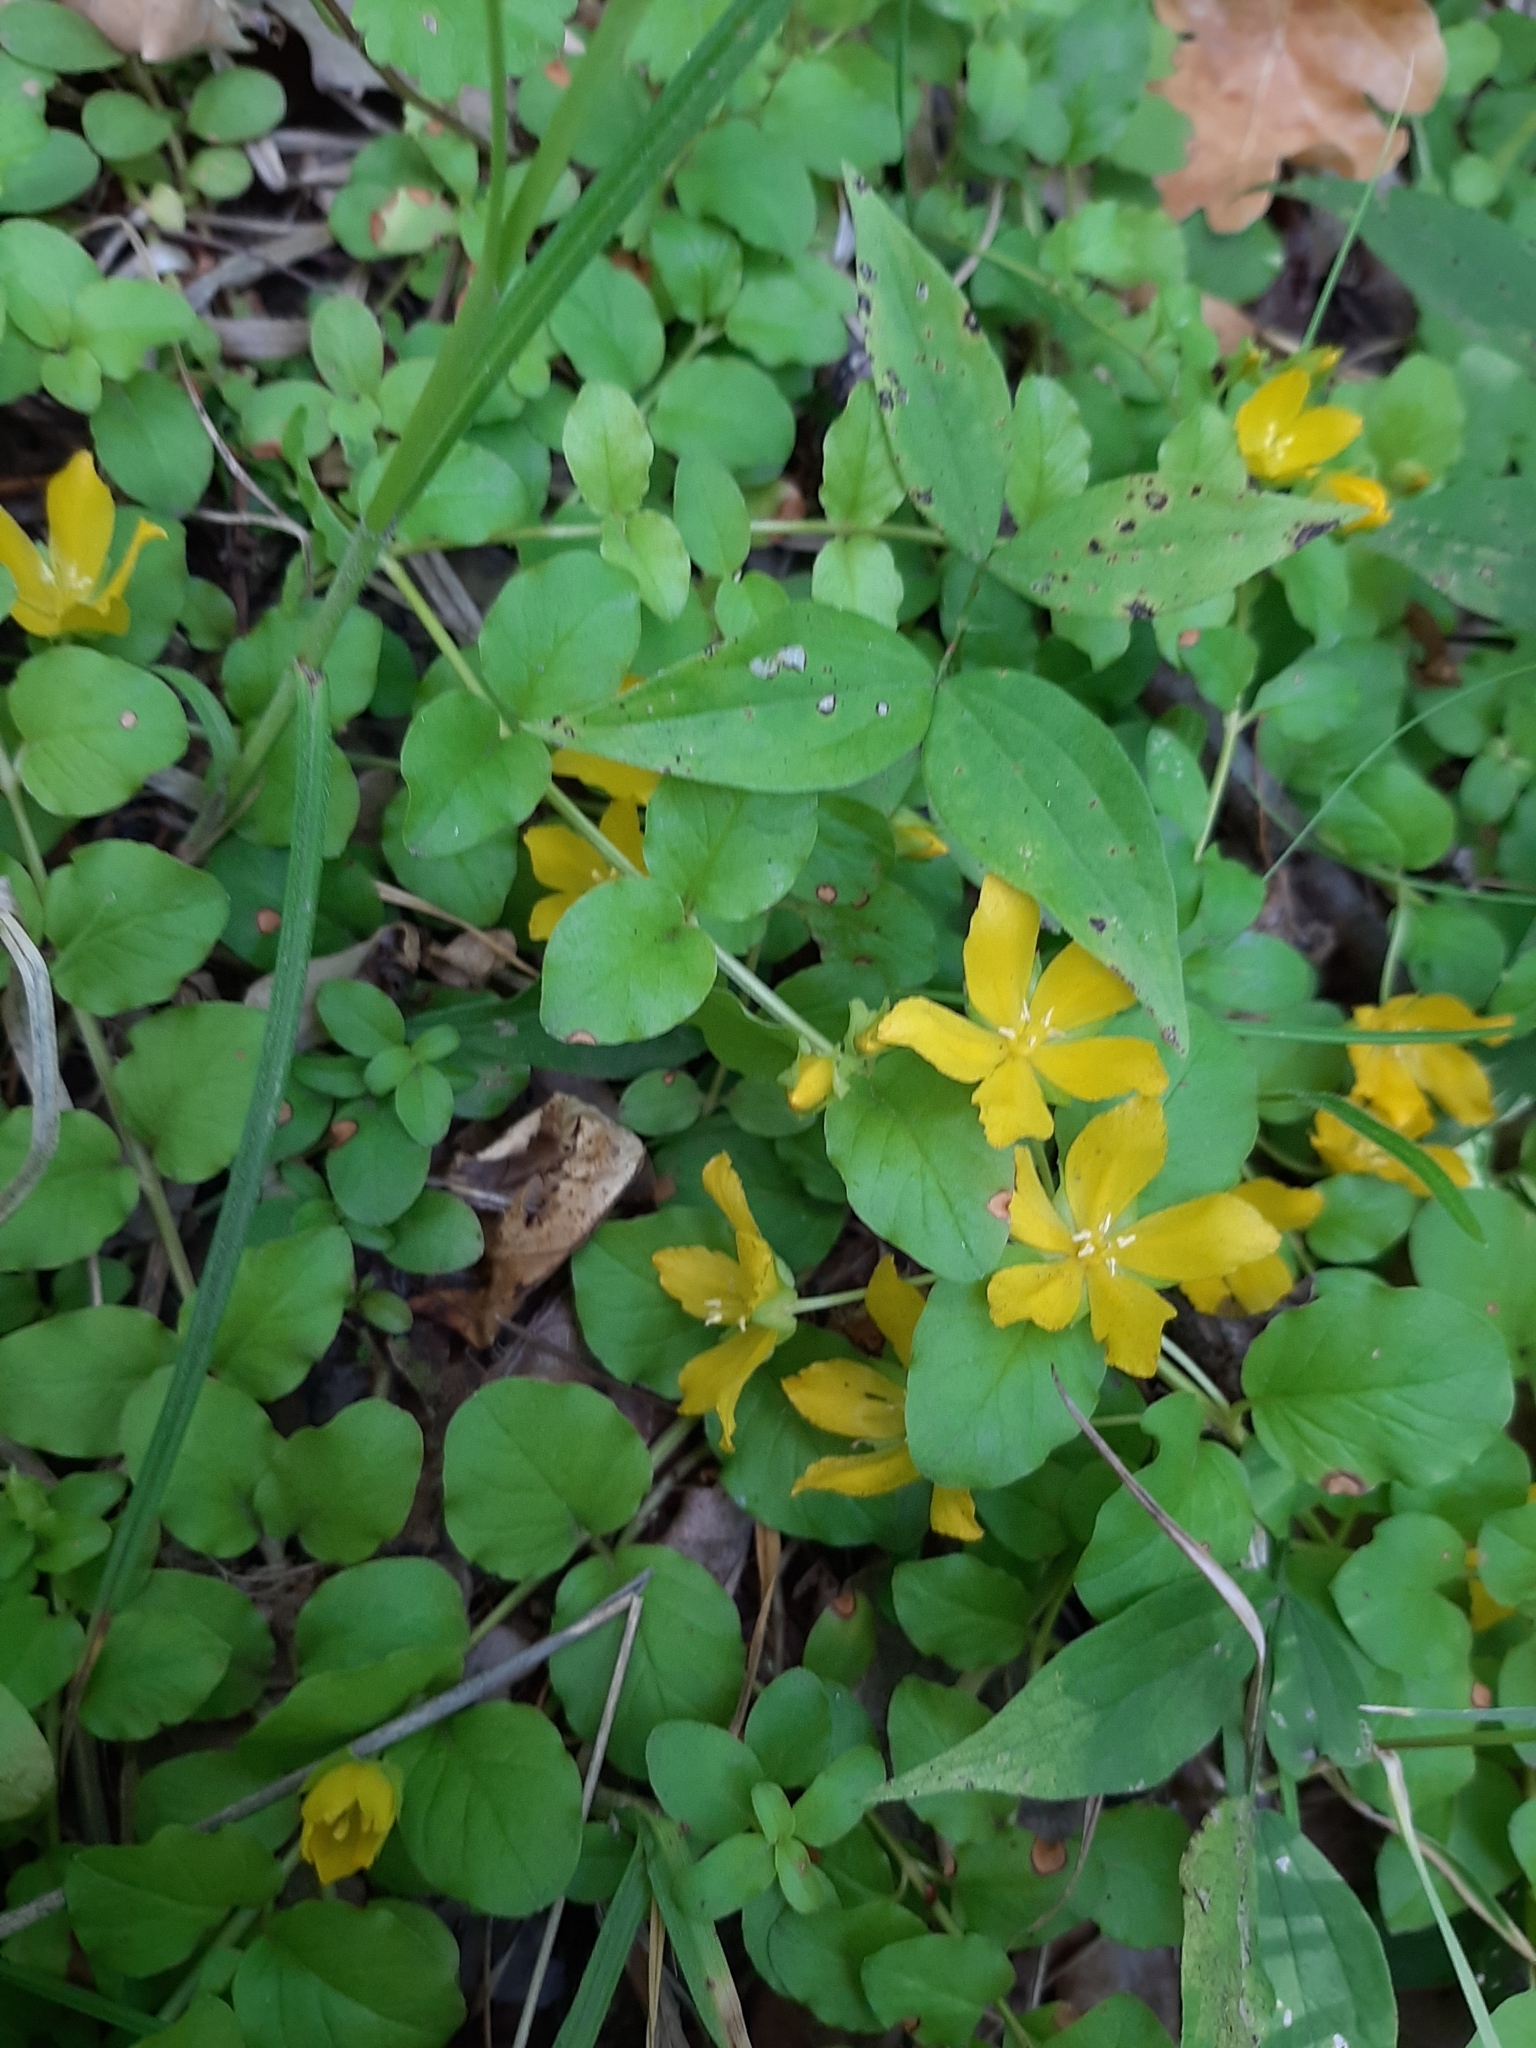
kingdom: Plantae
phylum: Tracheophyta
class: Magnoliopsida
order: Ericales
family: Primulaceae
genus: Lysimachia
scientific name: Lysimachia nummularia
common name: Moneywort
